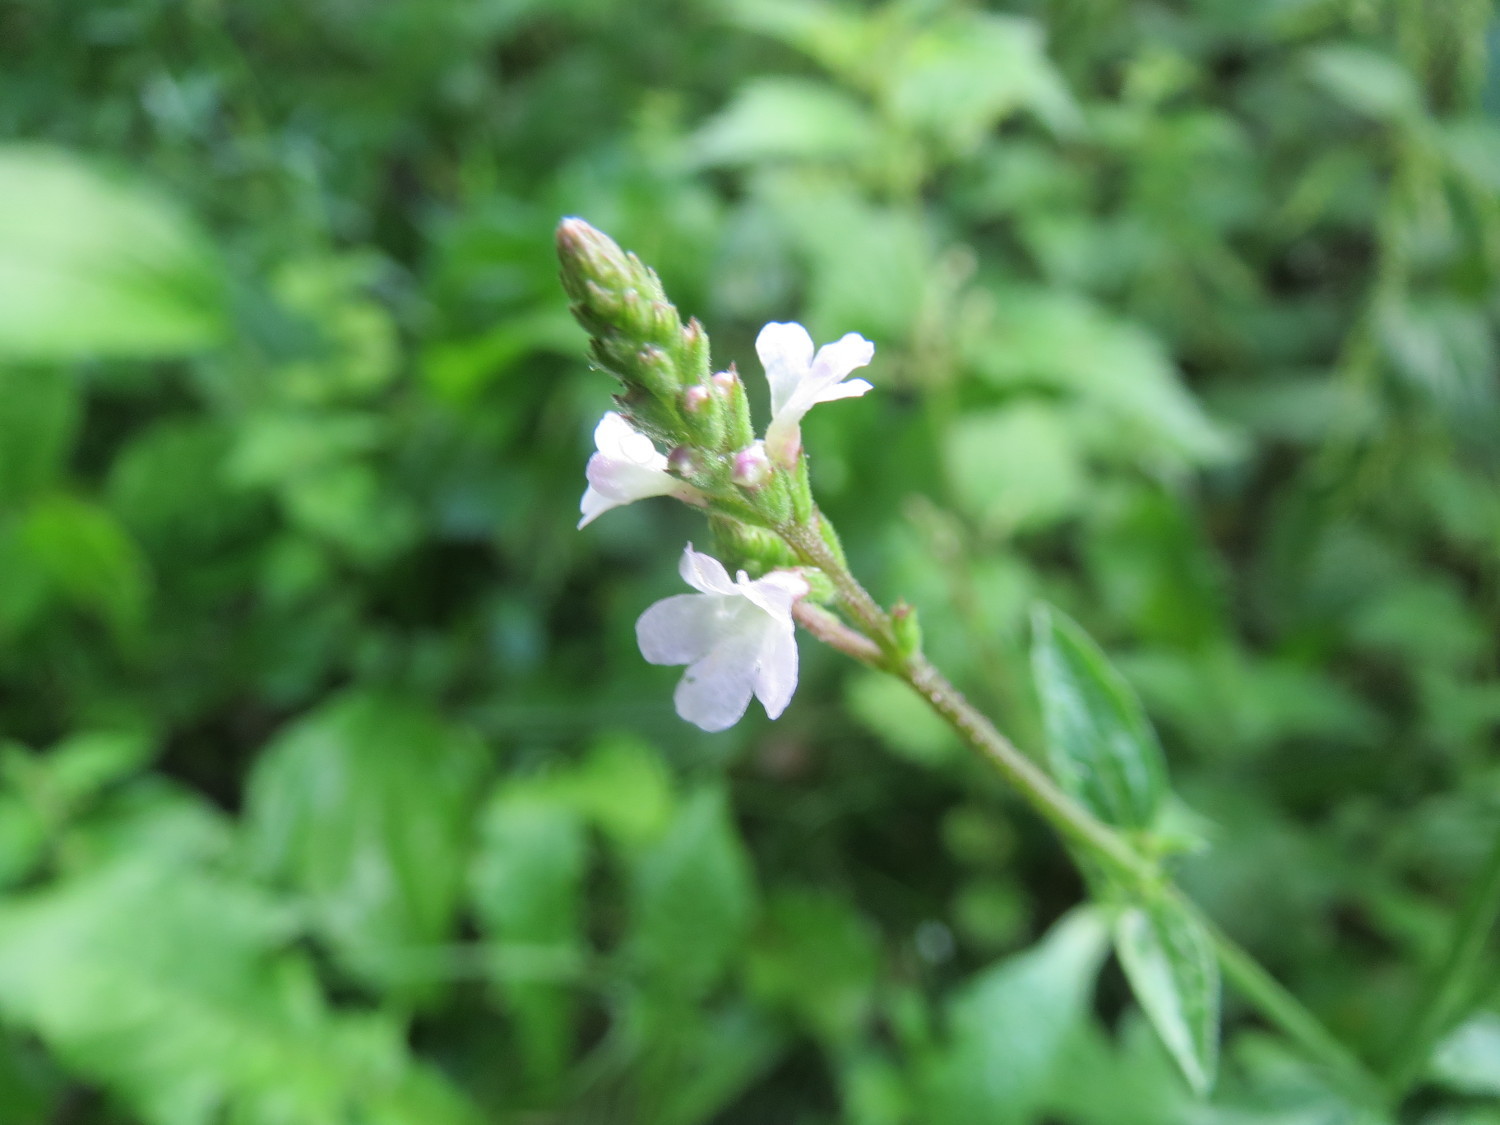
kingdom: Plantae
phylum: Tracheophyta
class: Magnoliopsida
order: Lamiales
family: Verbenaceae
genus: Verbena
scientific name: Verbena officinalis
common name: Vervain
